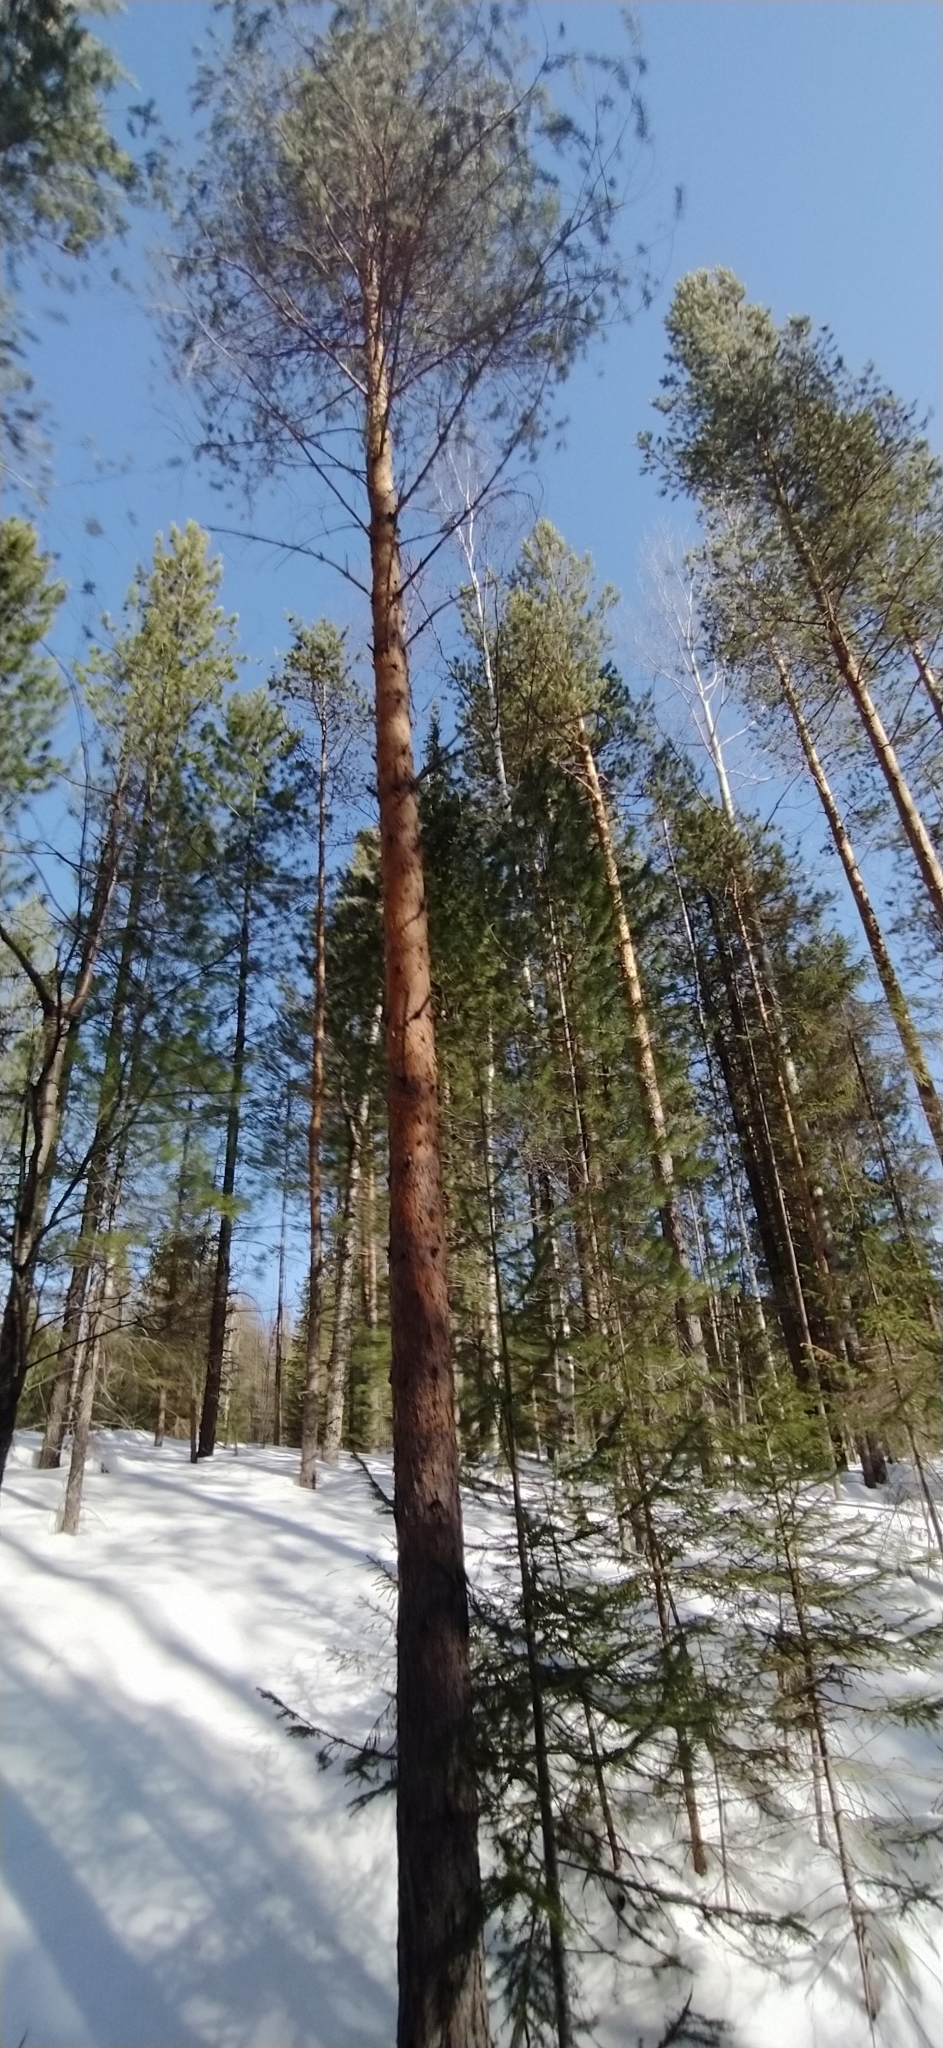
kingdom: Plantae
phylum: Tracheophyta
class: Pinopsida
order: Pinales
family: Pinaceae
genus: Pinus
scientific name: Pinus sylvestris
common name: Scots pine
